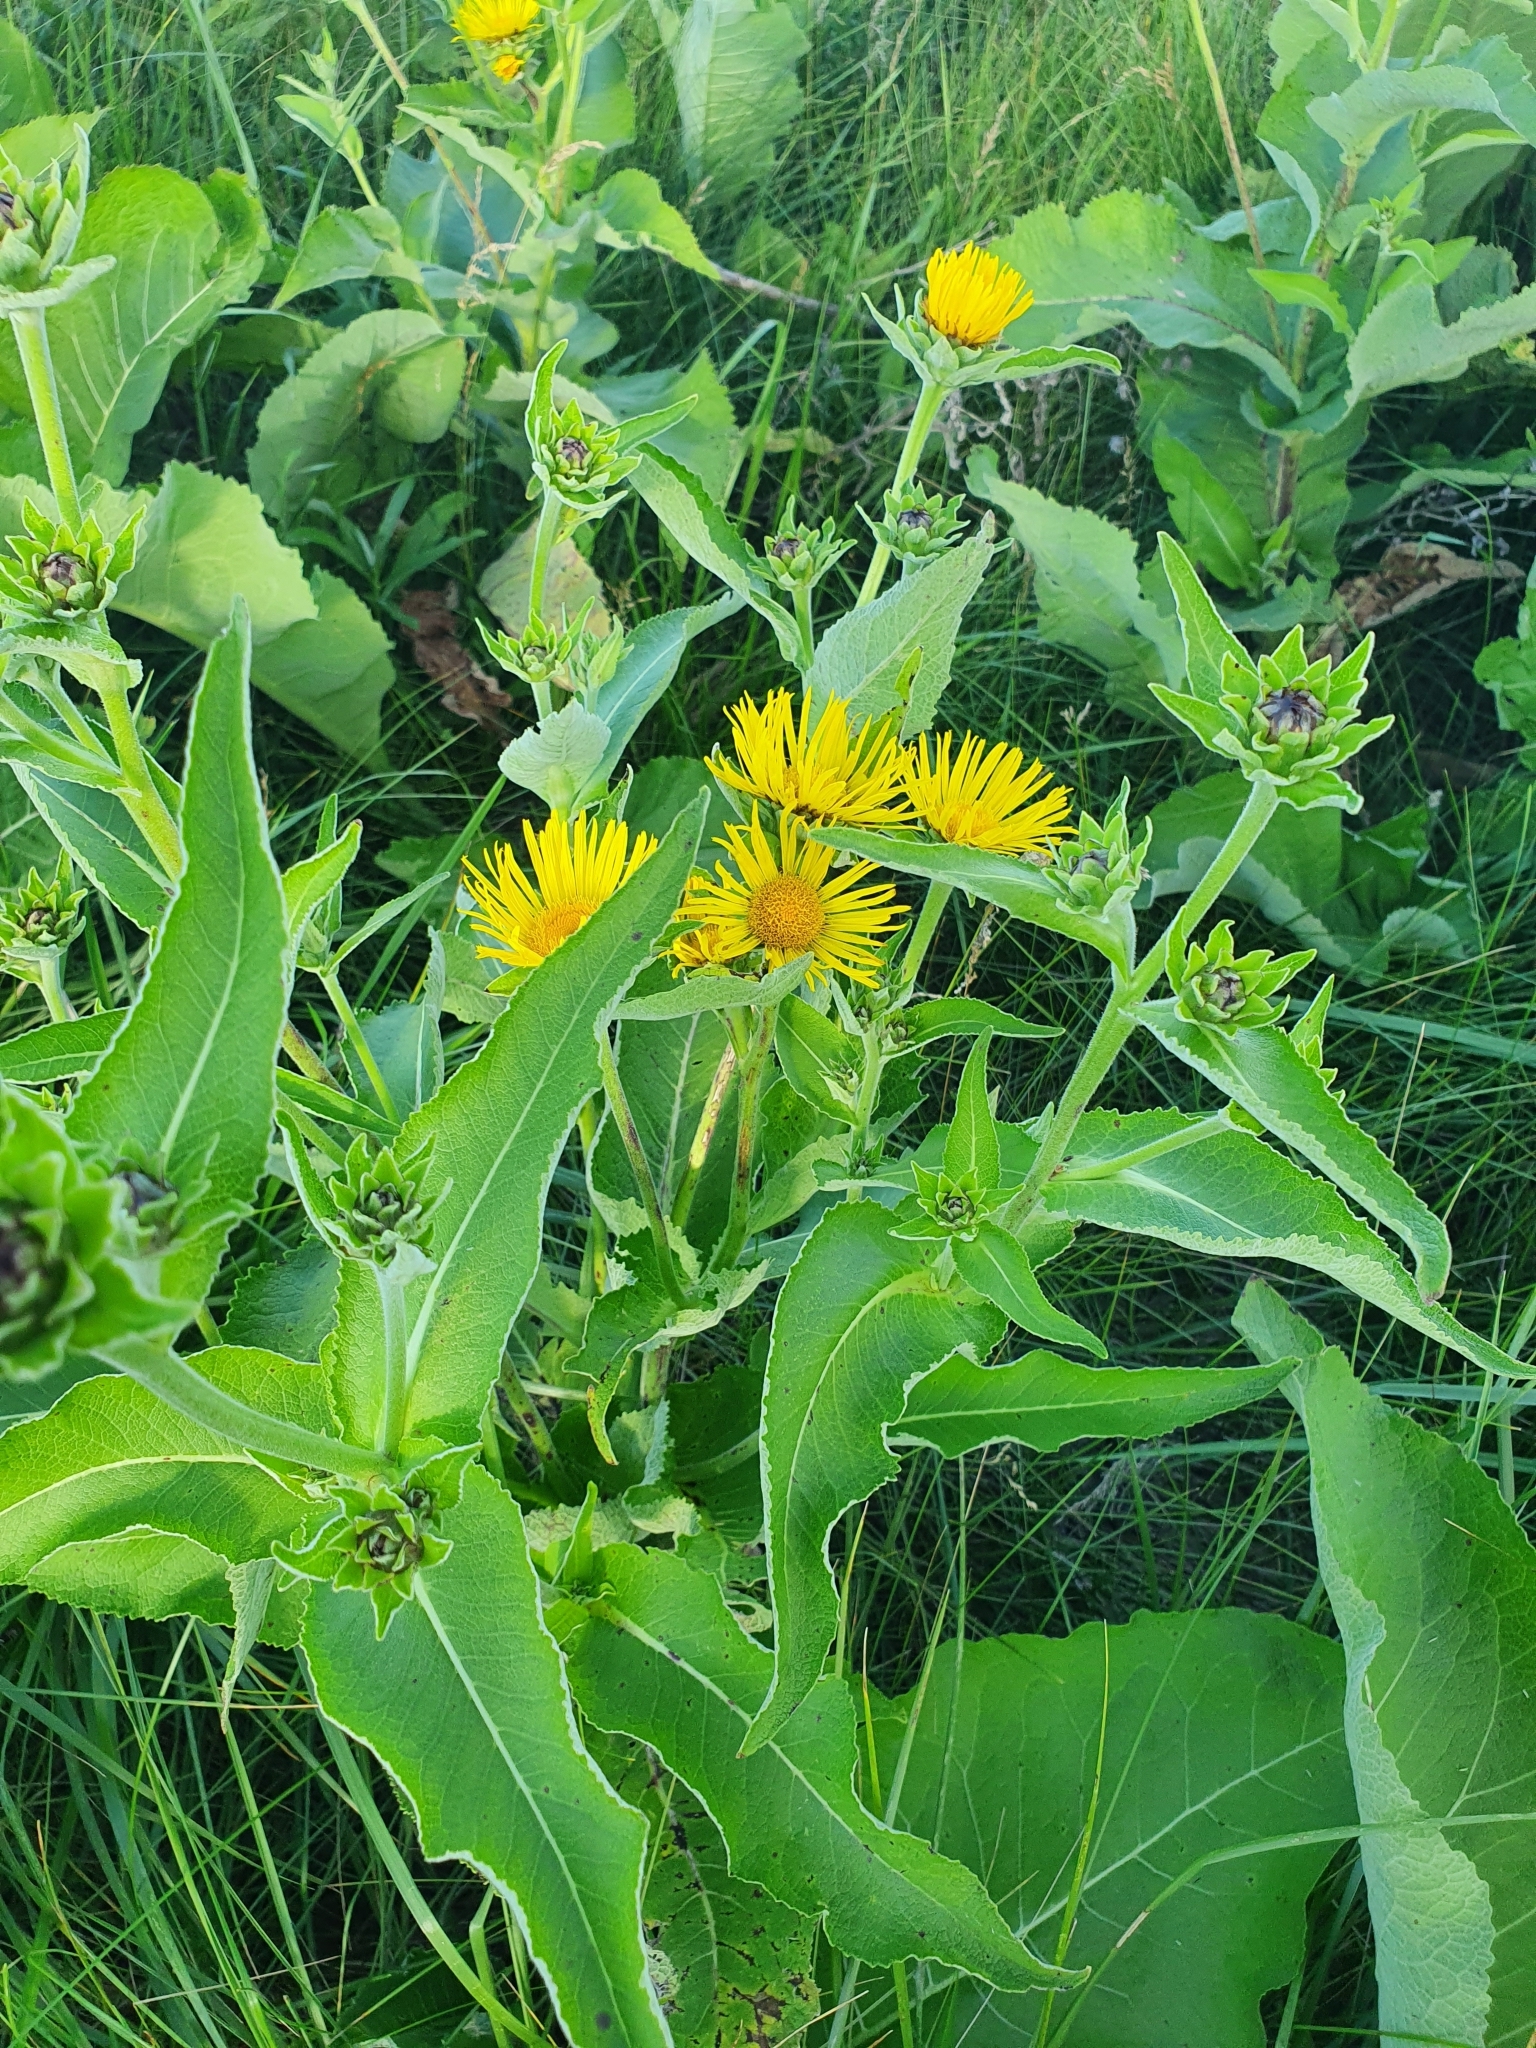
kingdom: Plantae
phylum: Tracheophyta
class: Magnoliopsida
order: Asterales
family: Asteraceae
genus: Inula
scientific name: Inula helenium
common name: Elecampane
